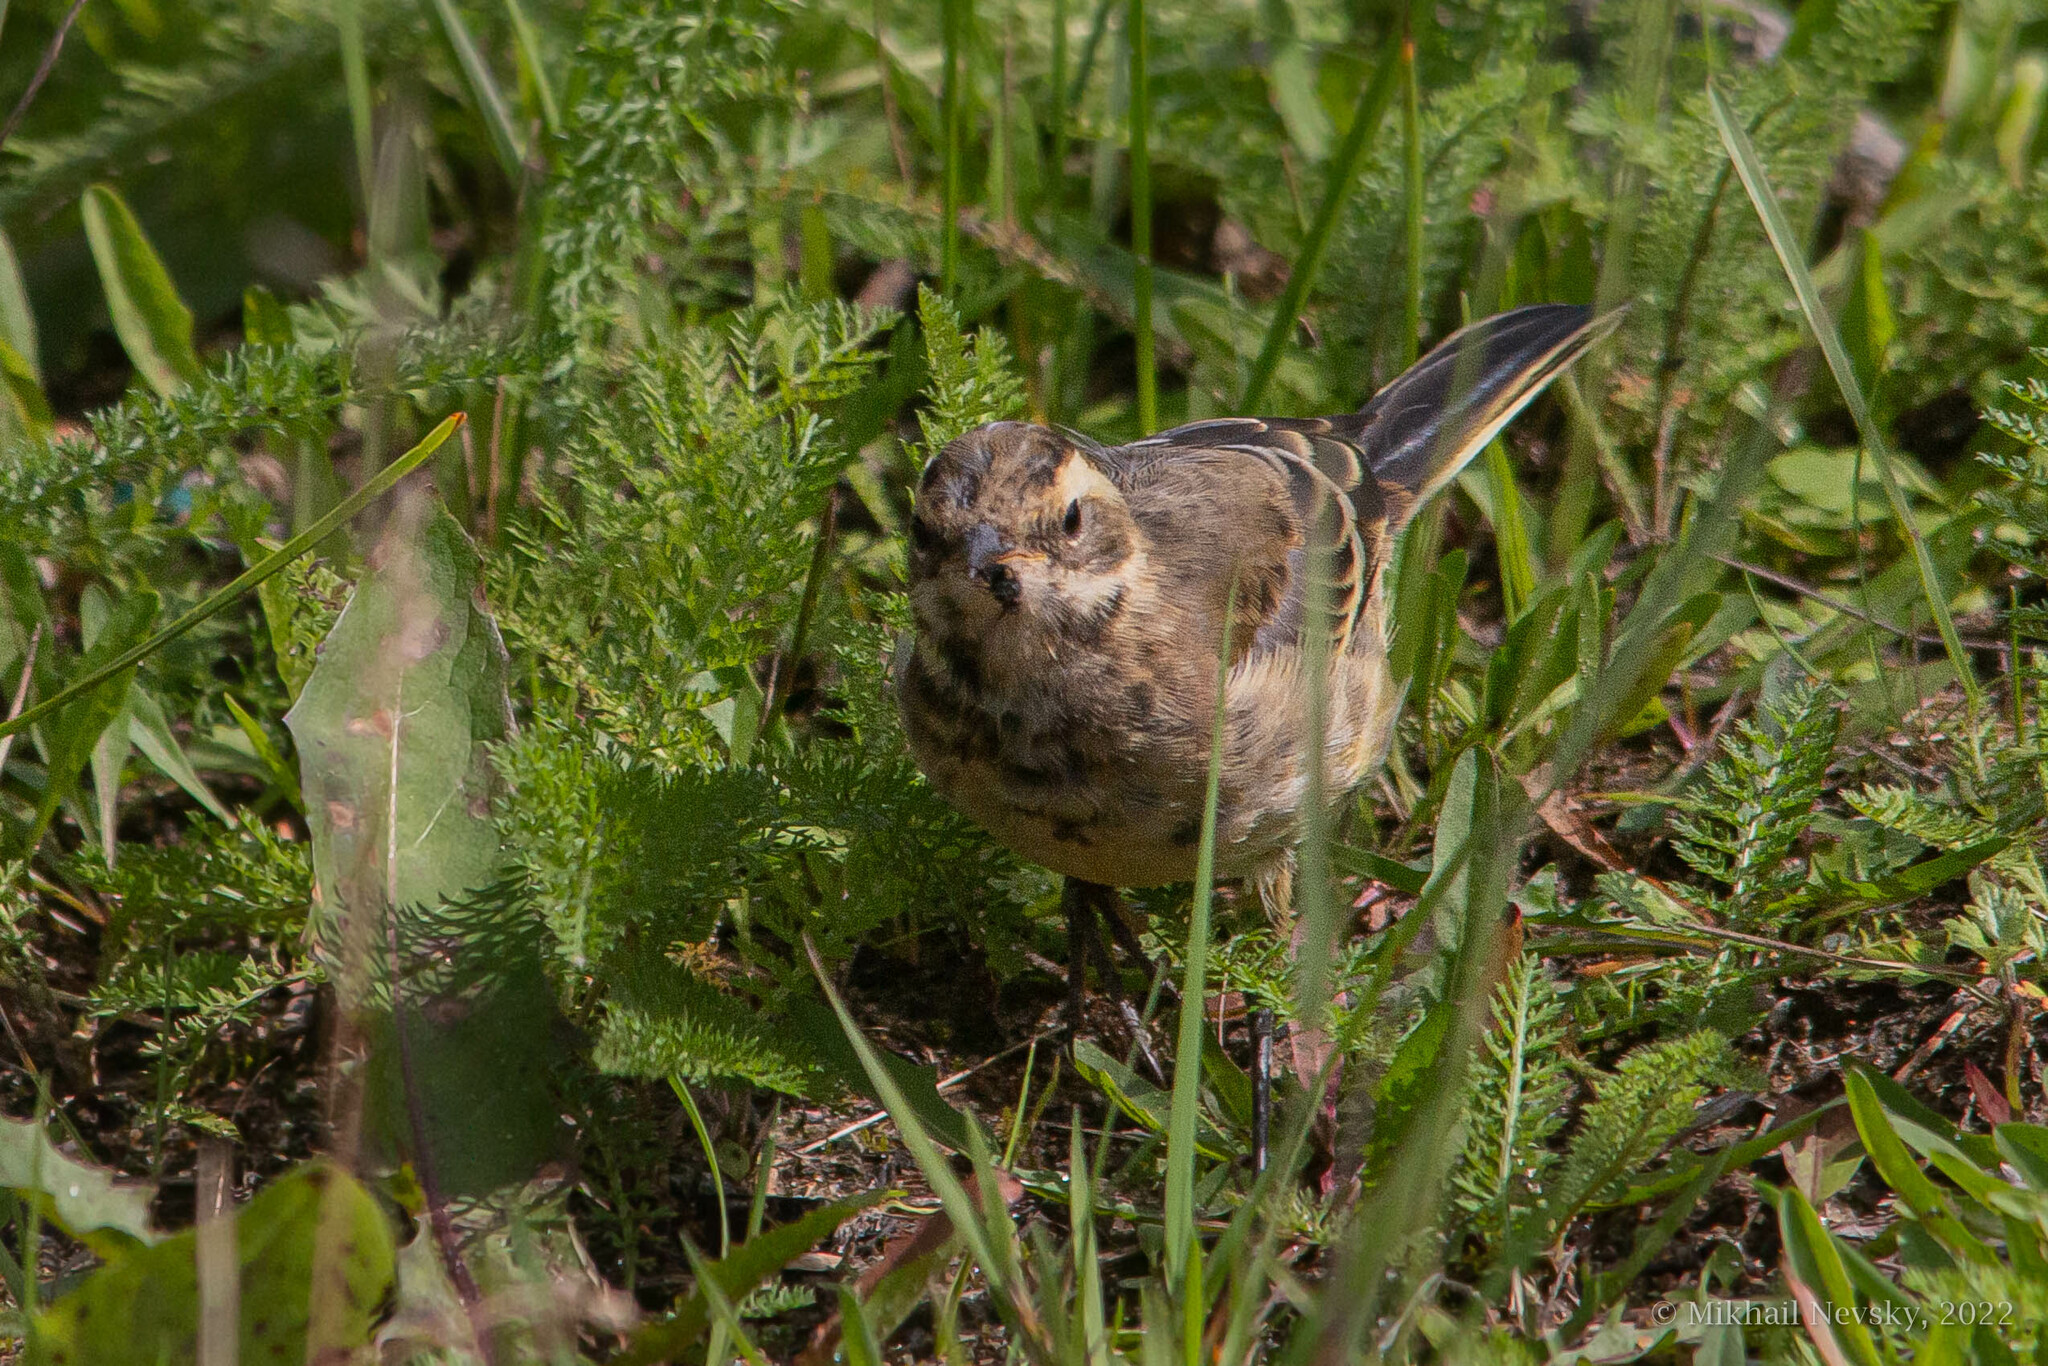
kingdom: Animalia
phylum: Chordata
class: Aves
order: Passeriformes
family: Motacillidae
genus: Motacilla
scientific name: Motacilla tschutschensis
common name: Eastern yellow wagtail
